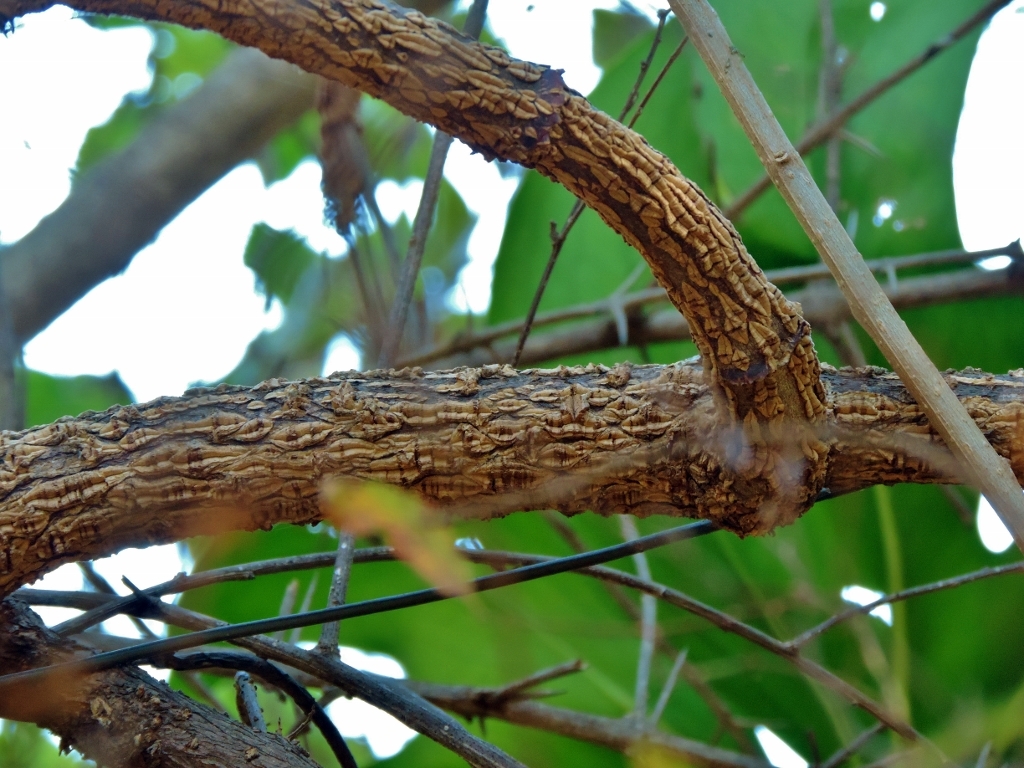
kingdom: Plantae
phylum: Tracheophyta
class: Magnoliopsida
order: Gentianales
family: Apocynaceae
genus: Mondia
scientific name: Mondia whitei
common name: Mondia
